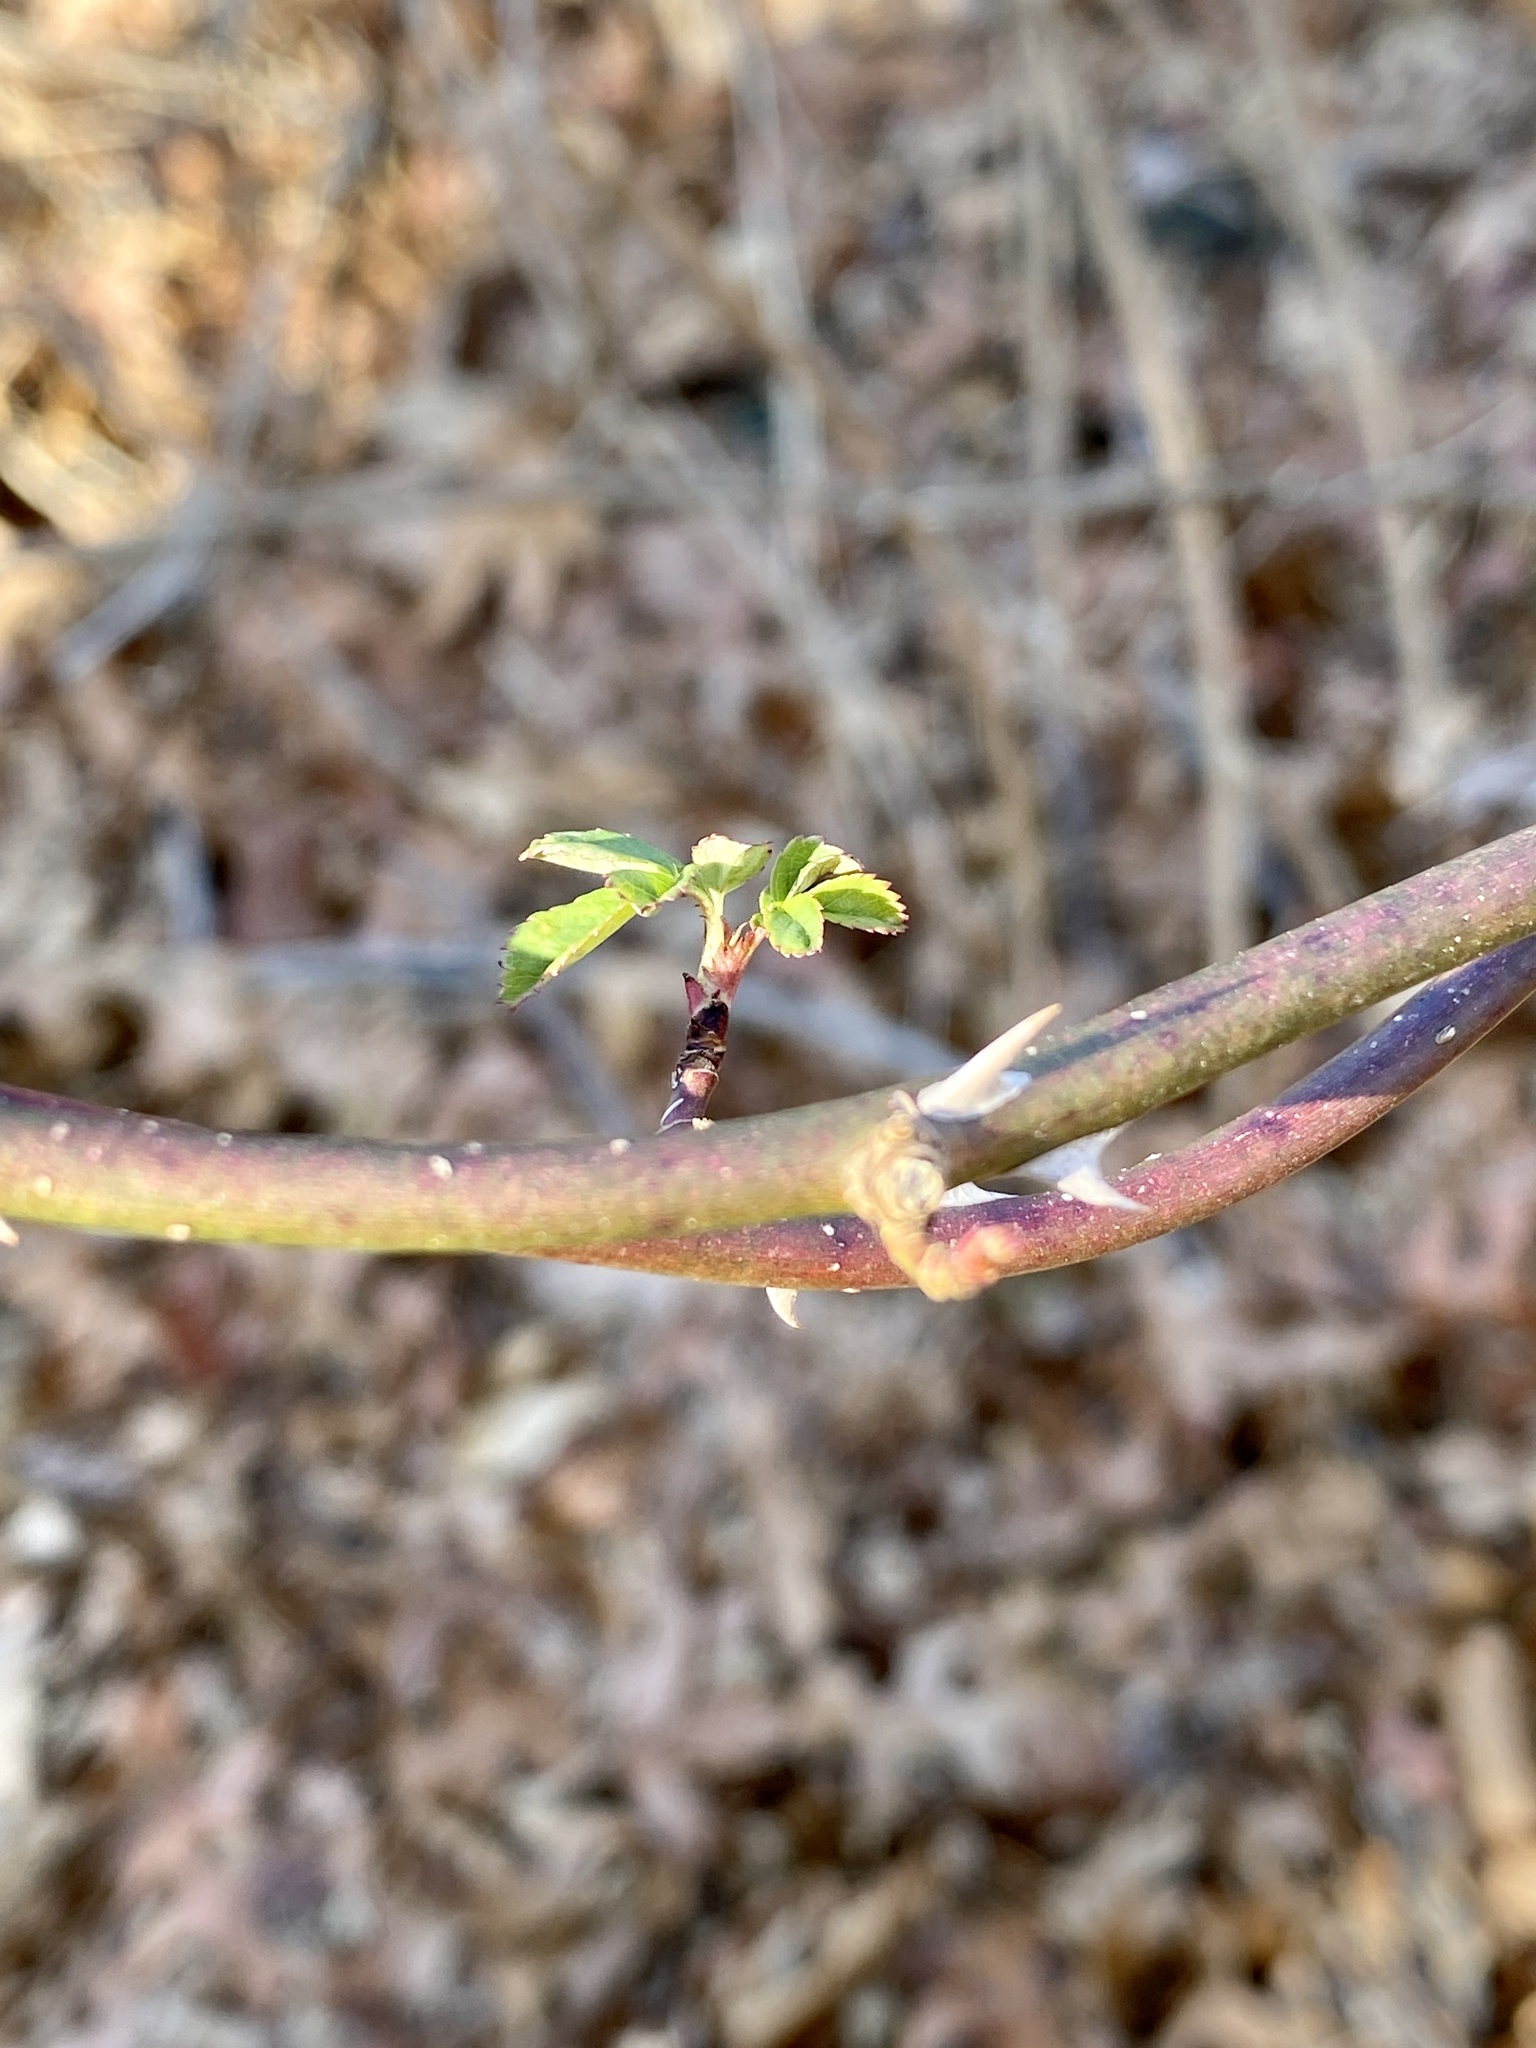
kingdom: Plantae
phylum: Tracheophyta
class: Magnoliopsida
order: Rosales
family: Rosaceae
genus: Rosa
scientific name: Rosa multiflora
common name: Multiflora rose
